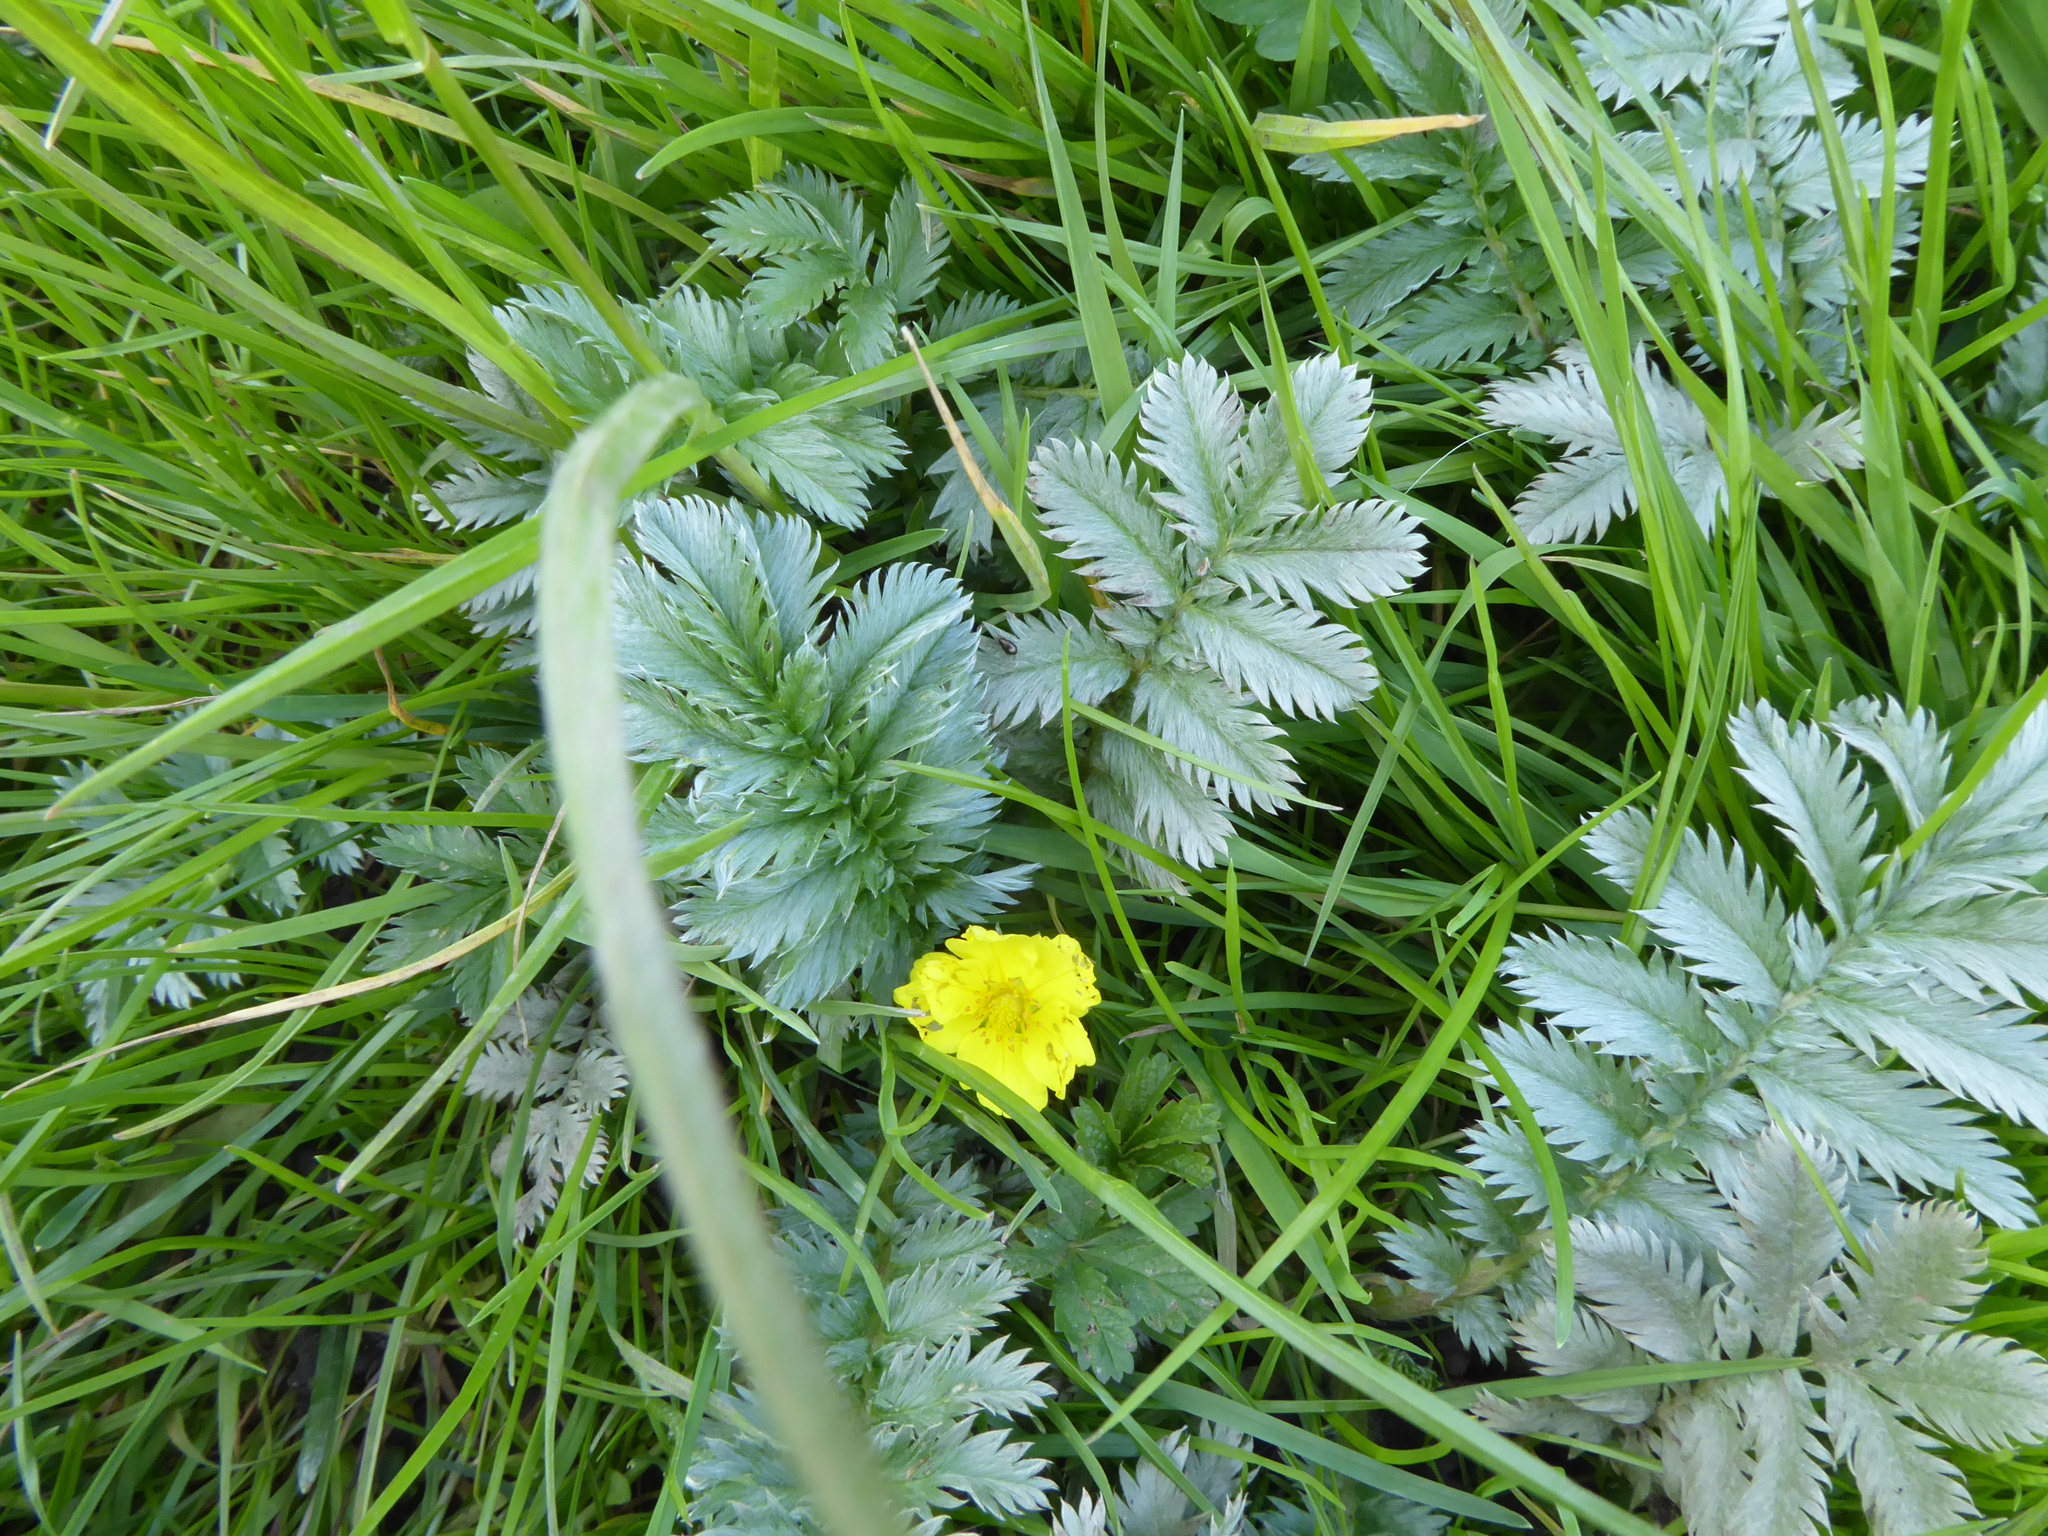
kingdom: Plantae
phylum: Tracheophyta
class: Magnoliopsida
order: Rosales
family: Rosaceae
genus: Argentina
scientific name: Argentina anserina
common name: Common silverweed
